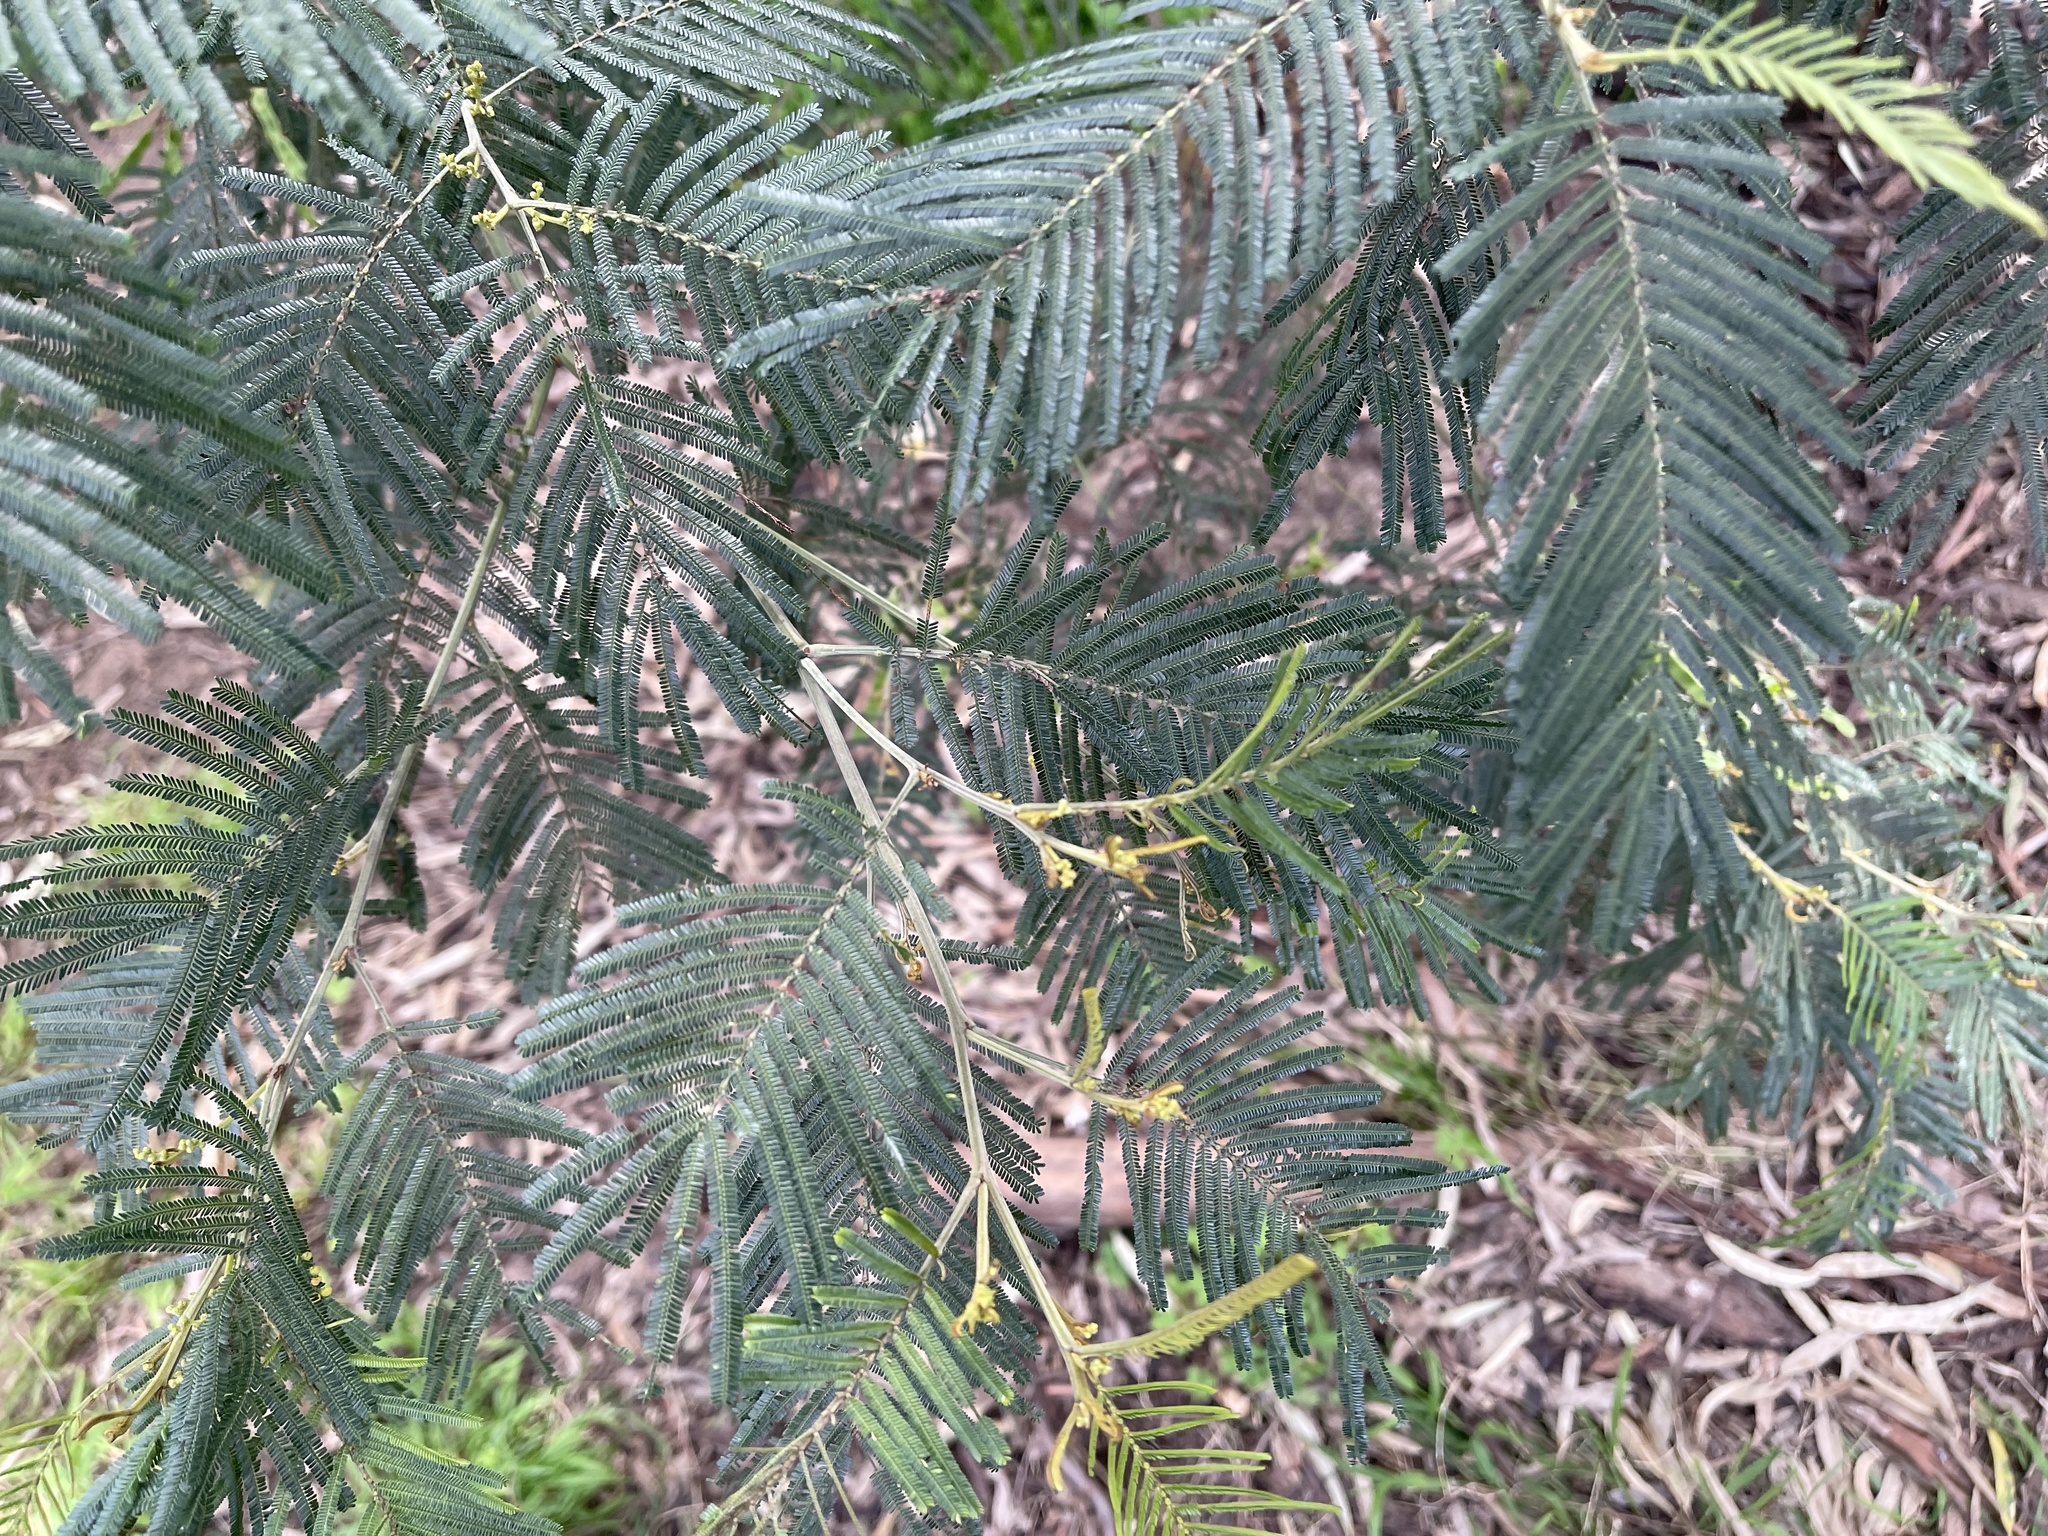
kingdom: Plantae
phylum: Tracheophyta
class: Magnoliopsida
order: Fabales
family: Fabaceae
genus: Acacia
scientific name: Acacia mearnsii
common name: Black wattle
